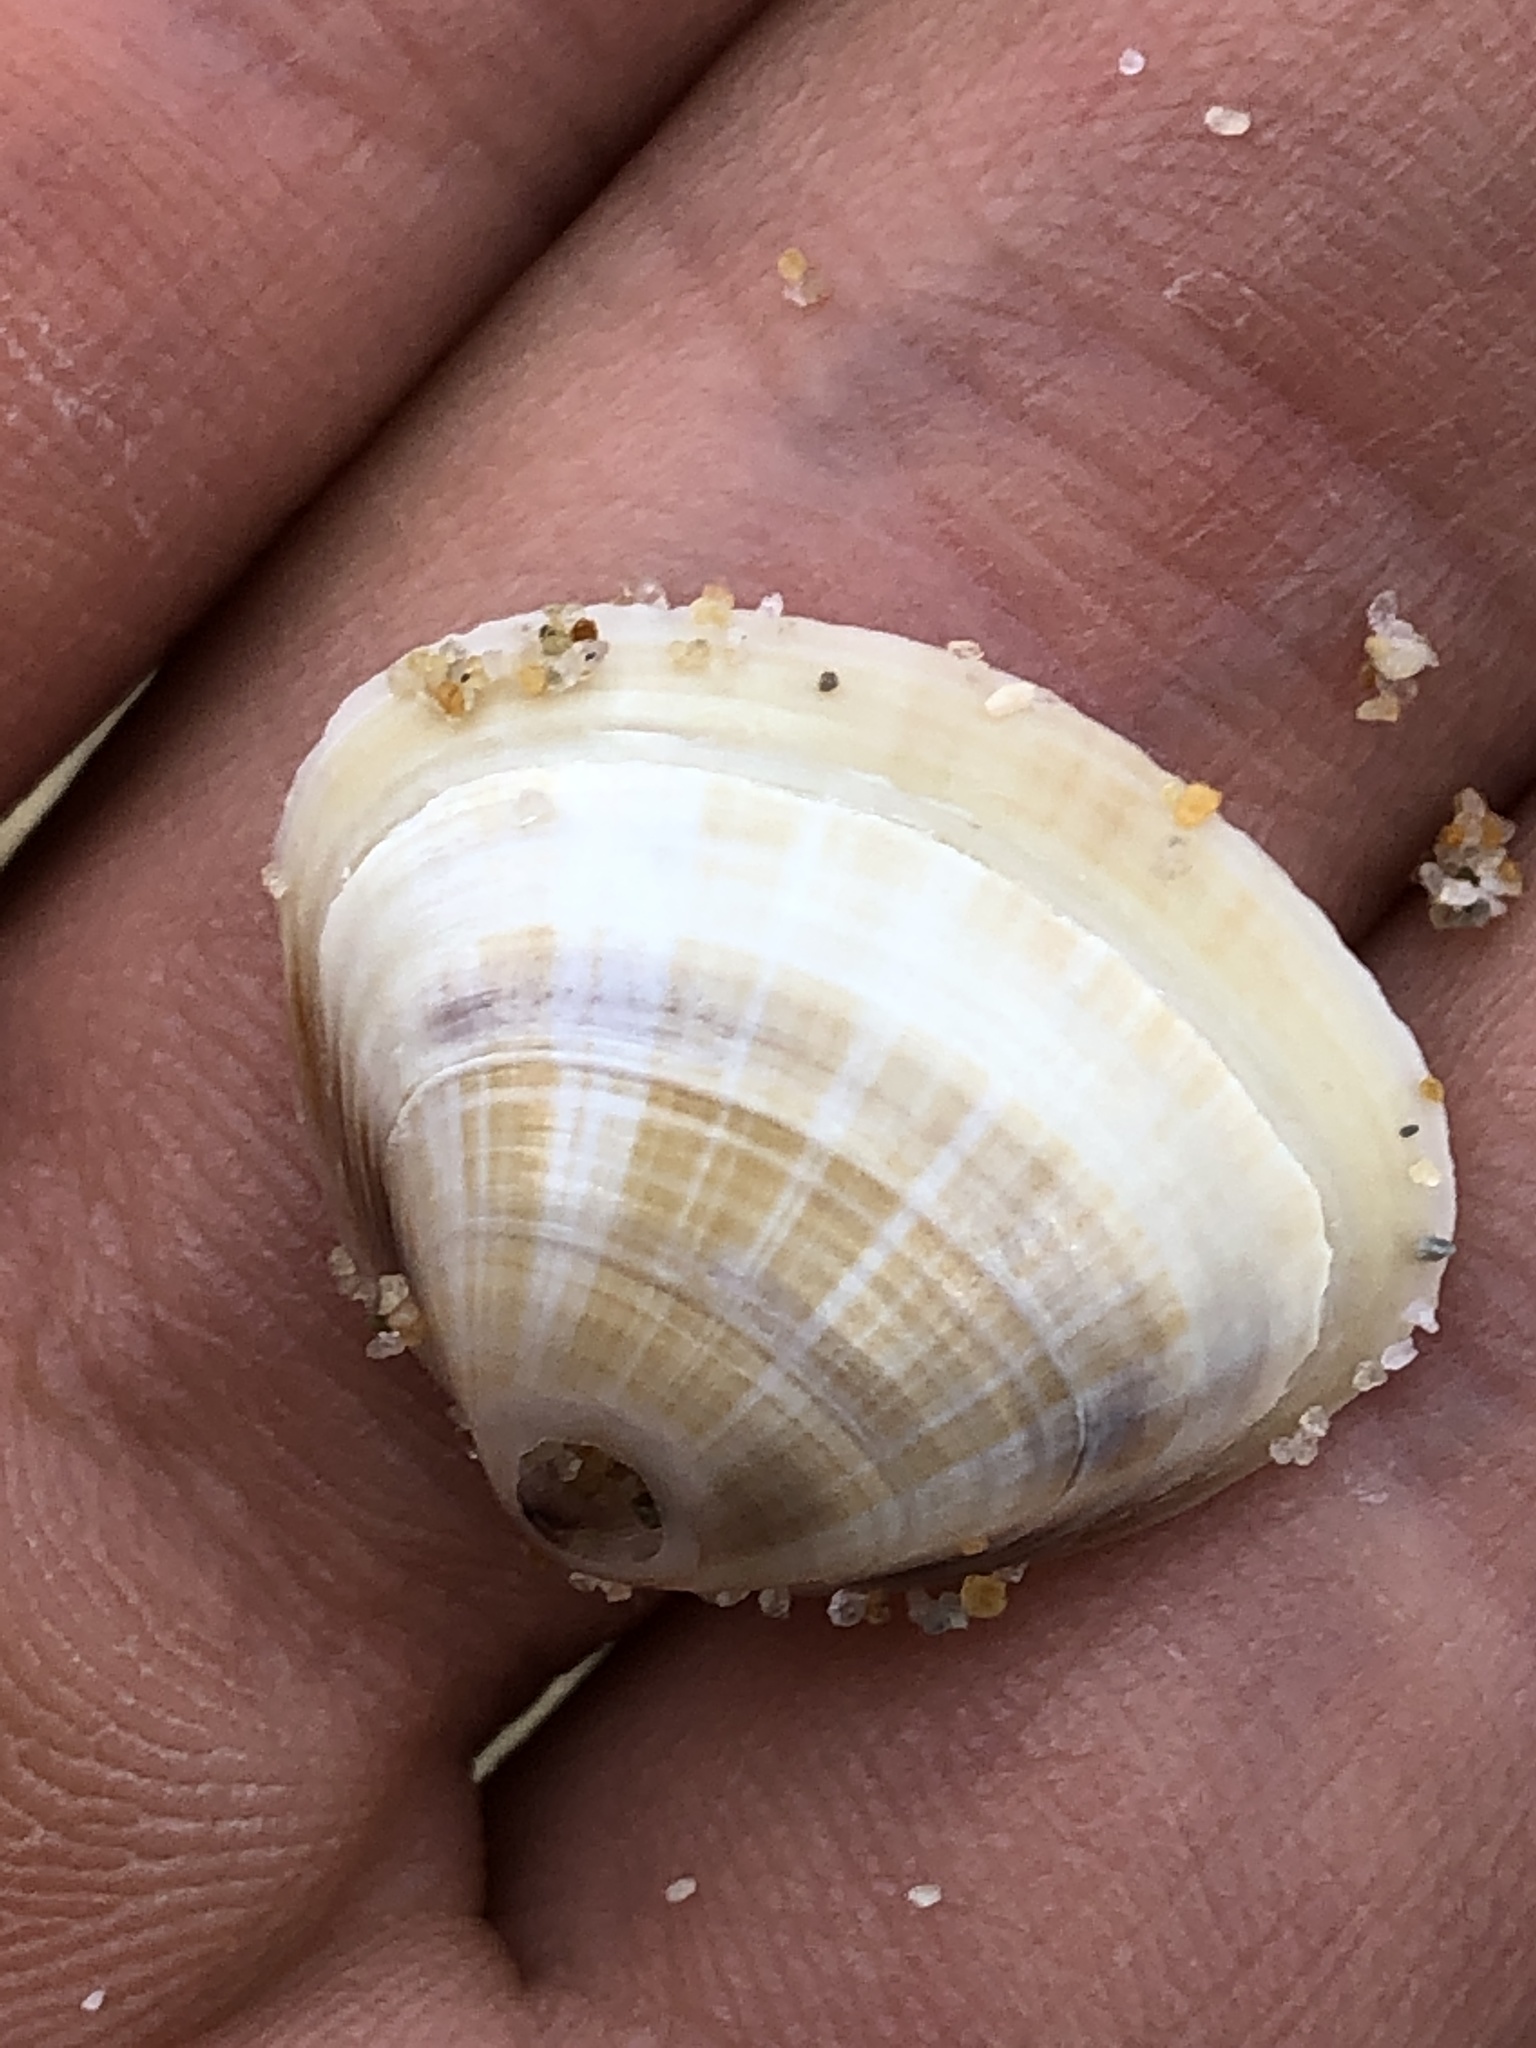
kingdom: Animalia
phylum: Mollusca
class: Bivalvia
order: Venerida
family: Mactridae
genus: Mactra
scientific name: Mactra chinensis
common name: Chinese surf clam
